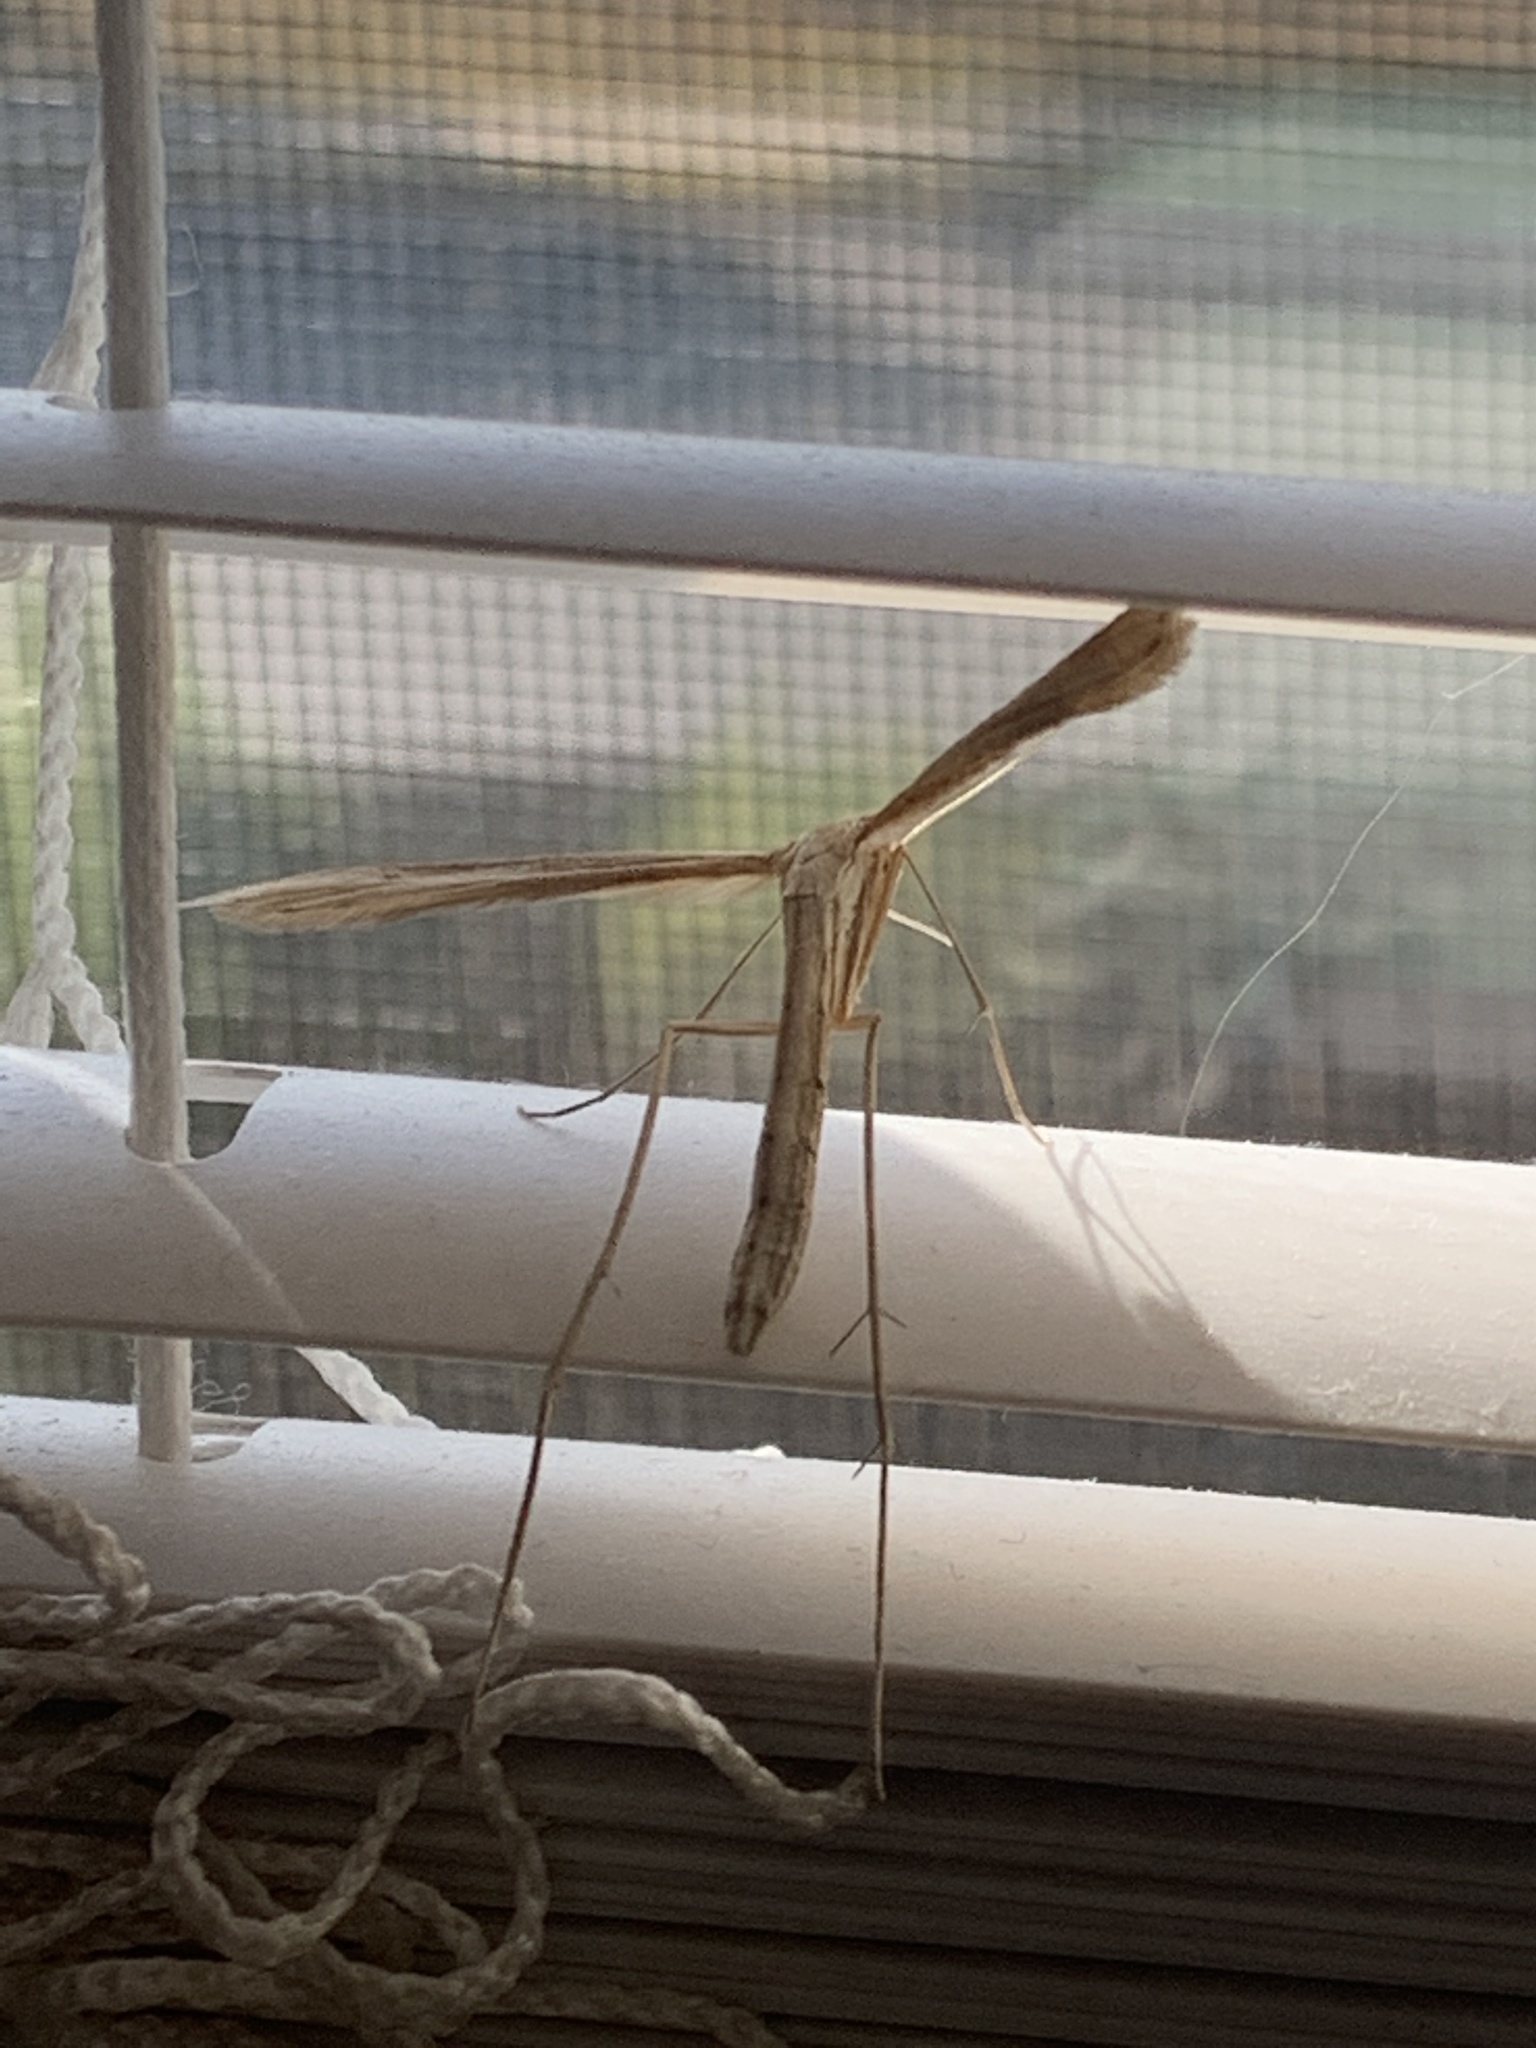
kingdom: Animalia
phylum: Arthropoda
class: Insecta
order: Lepidoptera
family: Pterophoridae
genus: Emmelina
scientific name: Emmelina monodactyla
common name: Common plume
